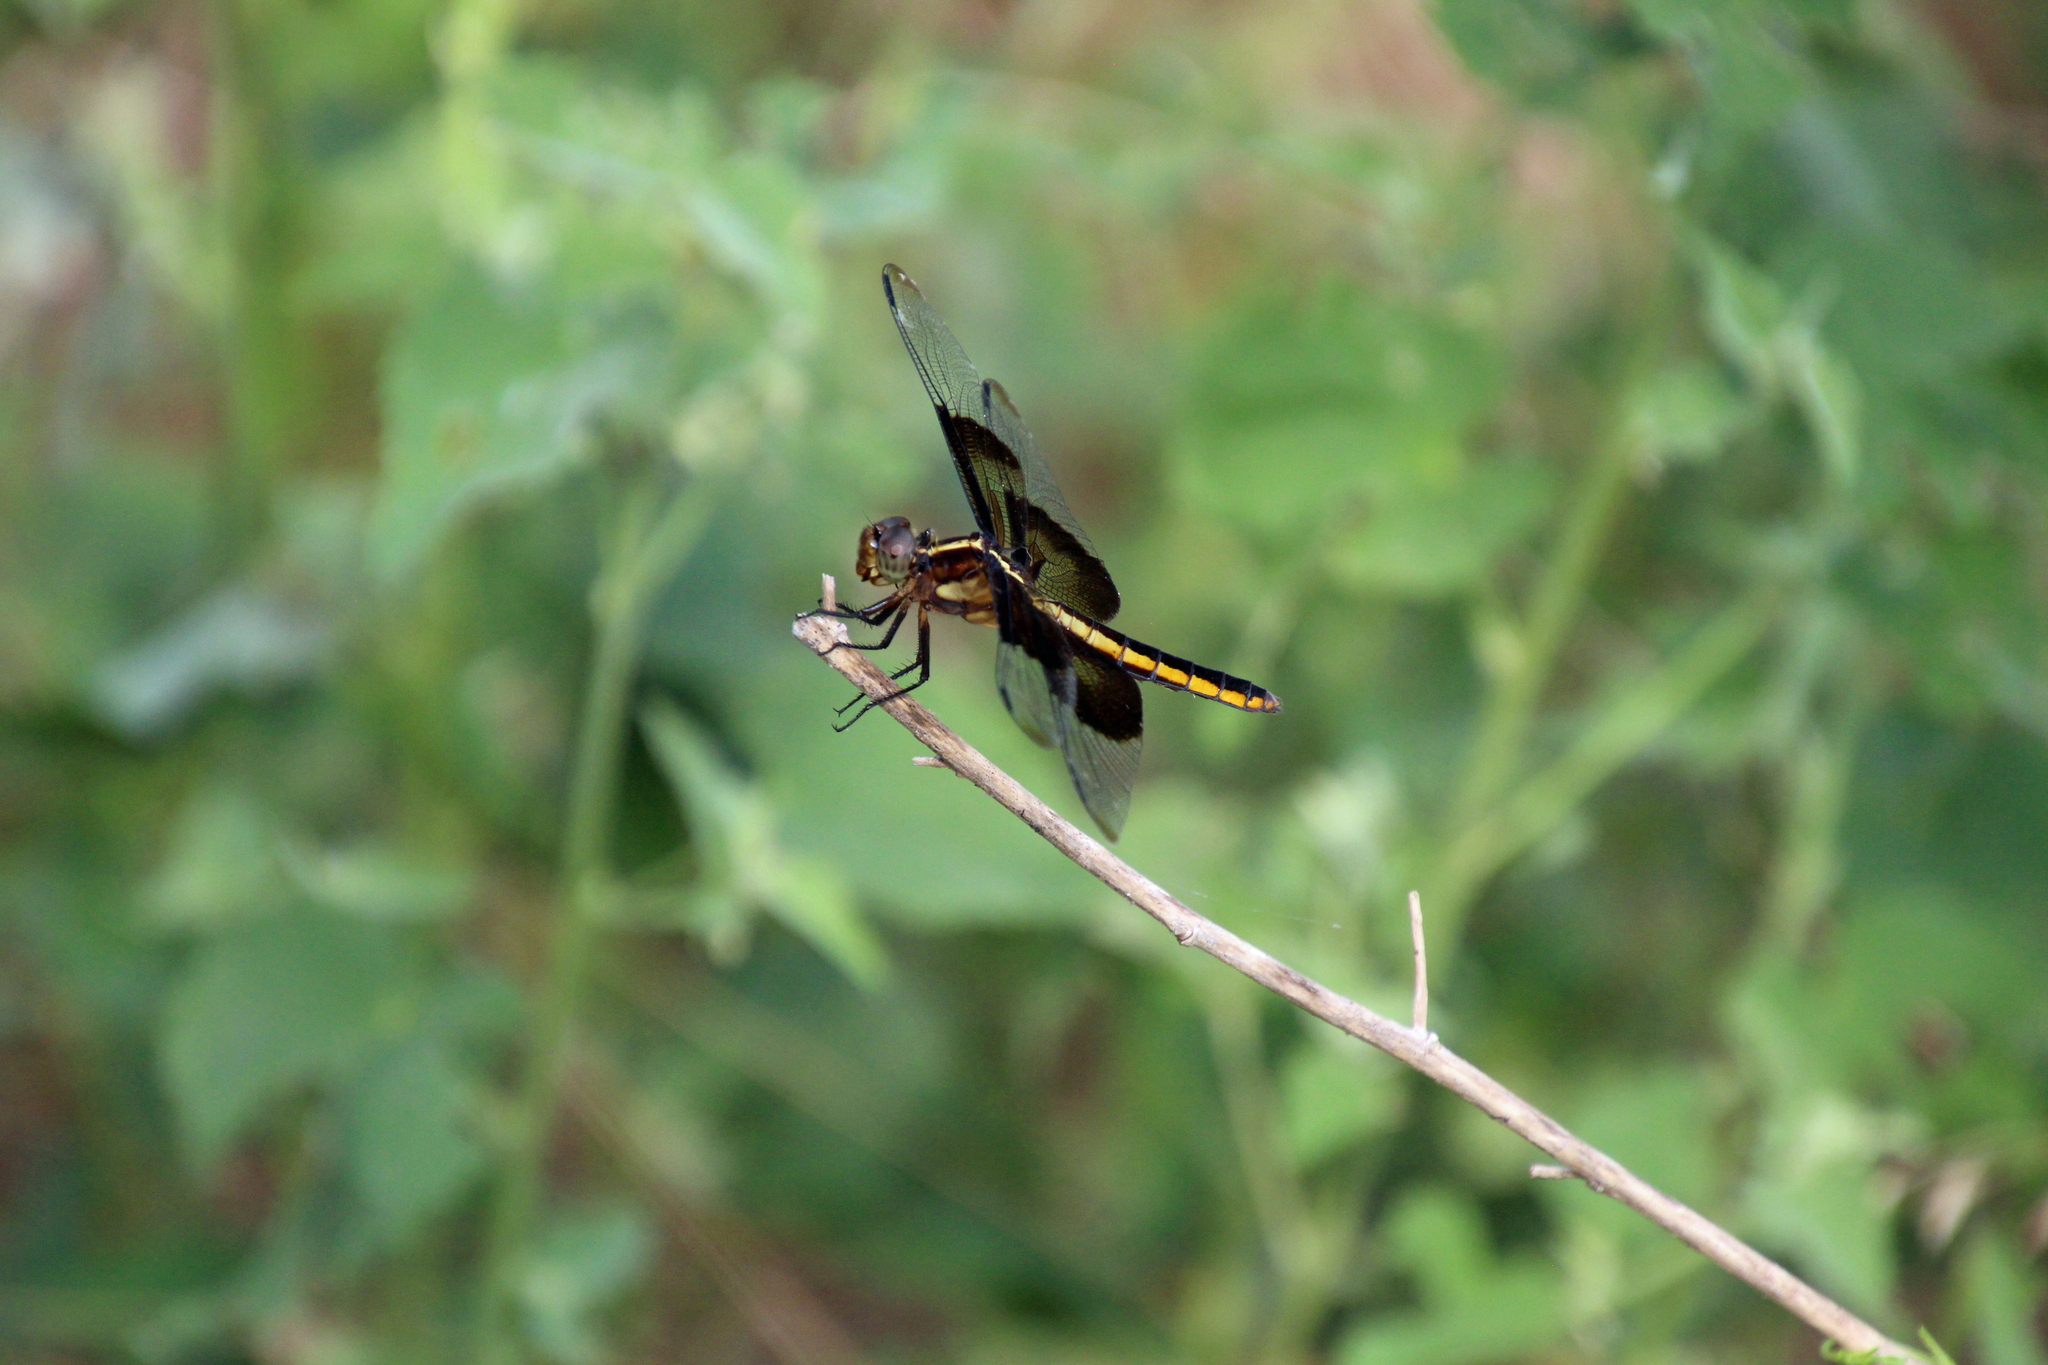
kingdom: Animalia
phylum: Arthropoda
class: Insecta
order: Odonata
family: Libellulidae
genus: Libellula
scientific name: Libellula luctuosa
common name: Widow skimmer
